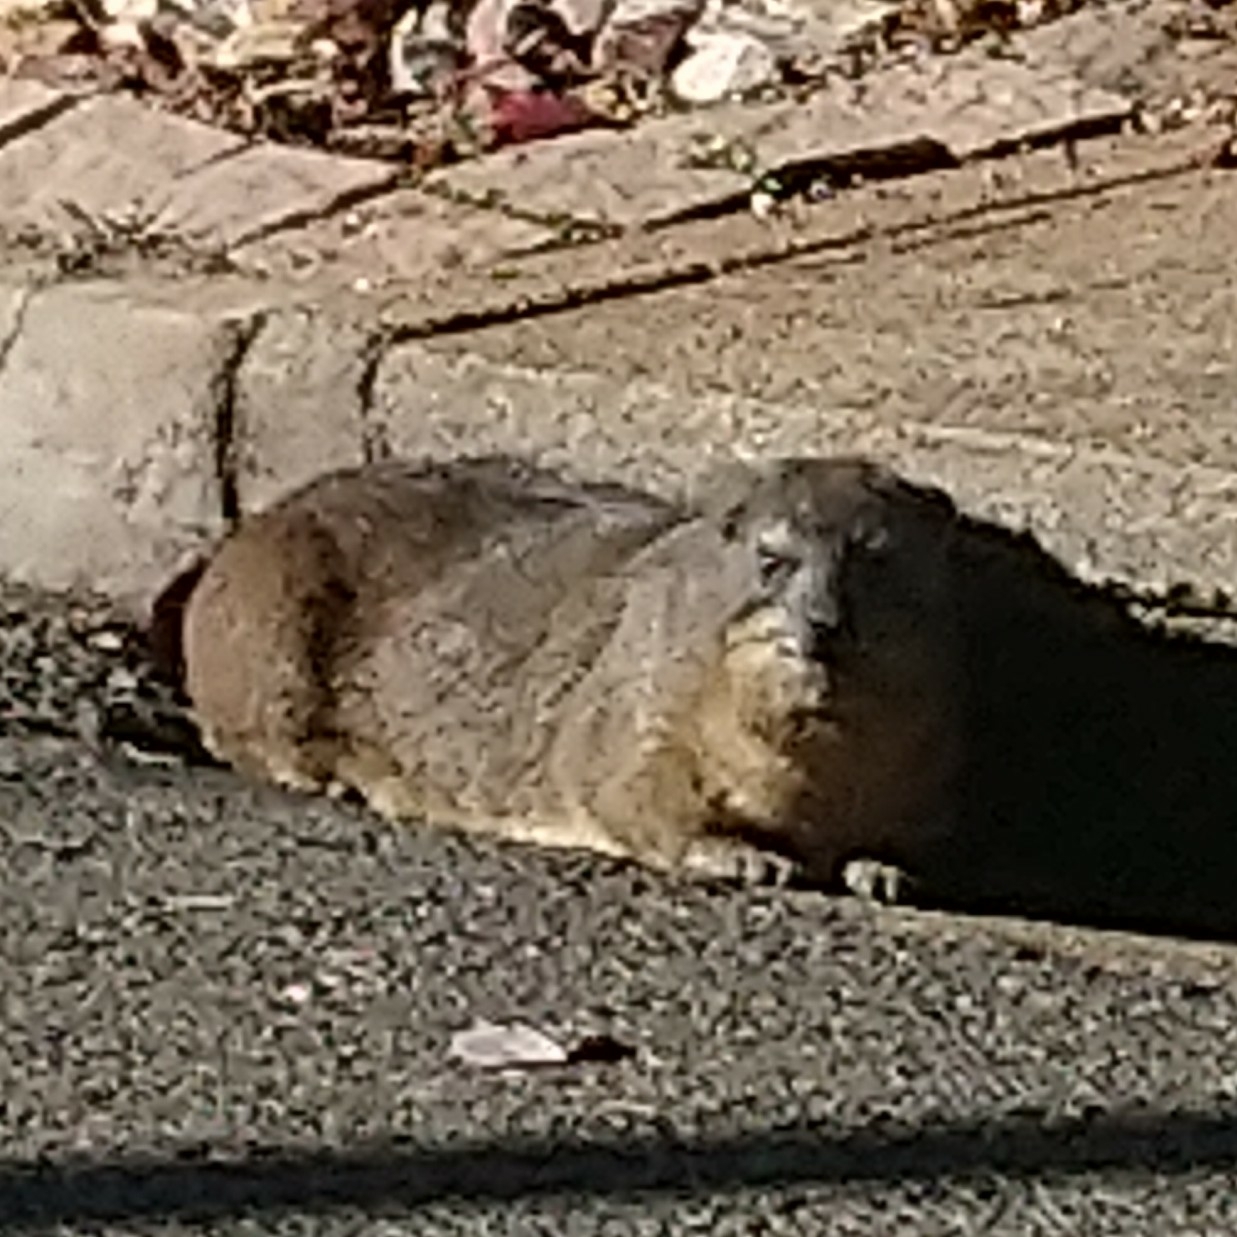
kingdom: Animalia
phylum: Chordata
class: Mammalia
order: Hyracoidea
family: Procaviidae
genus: Procavia
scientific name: Procavia capensis
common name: Rock hyrax
